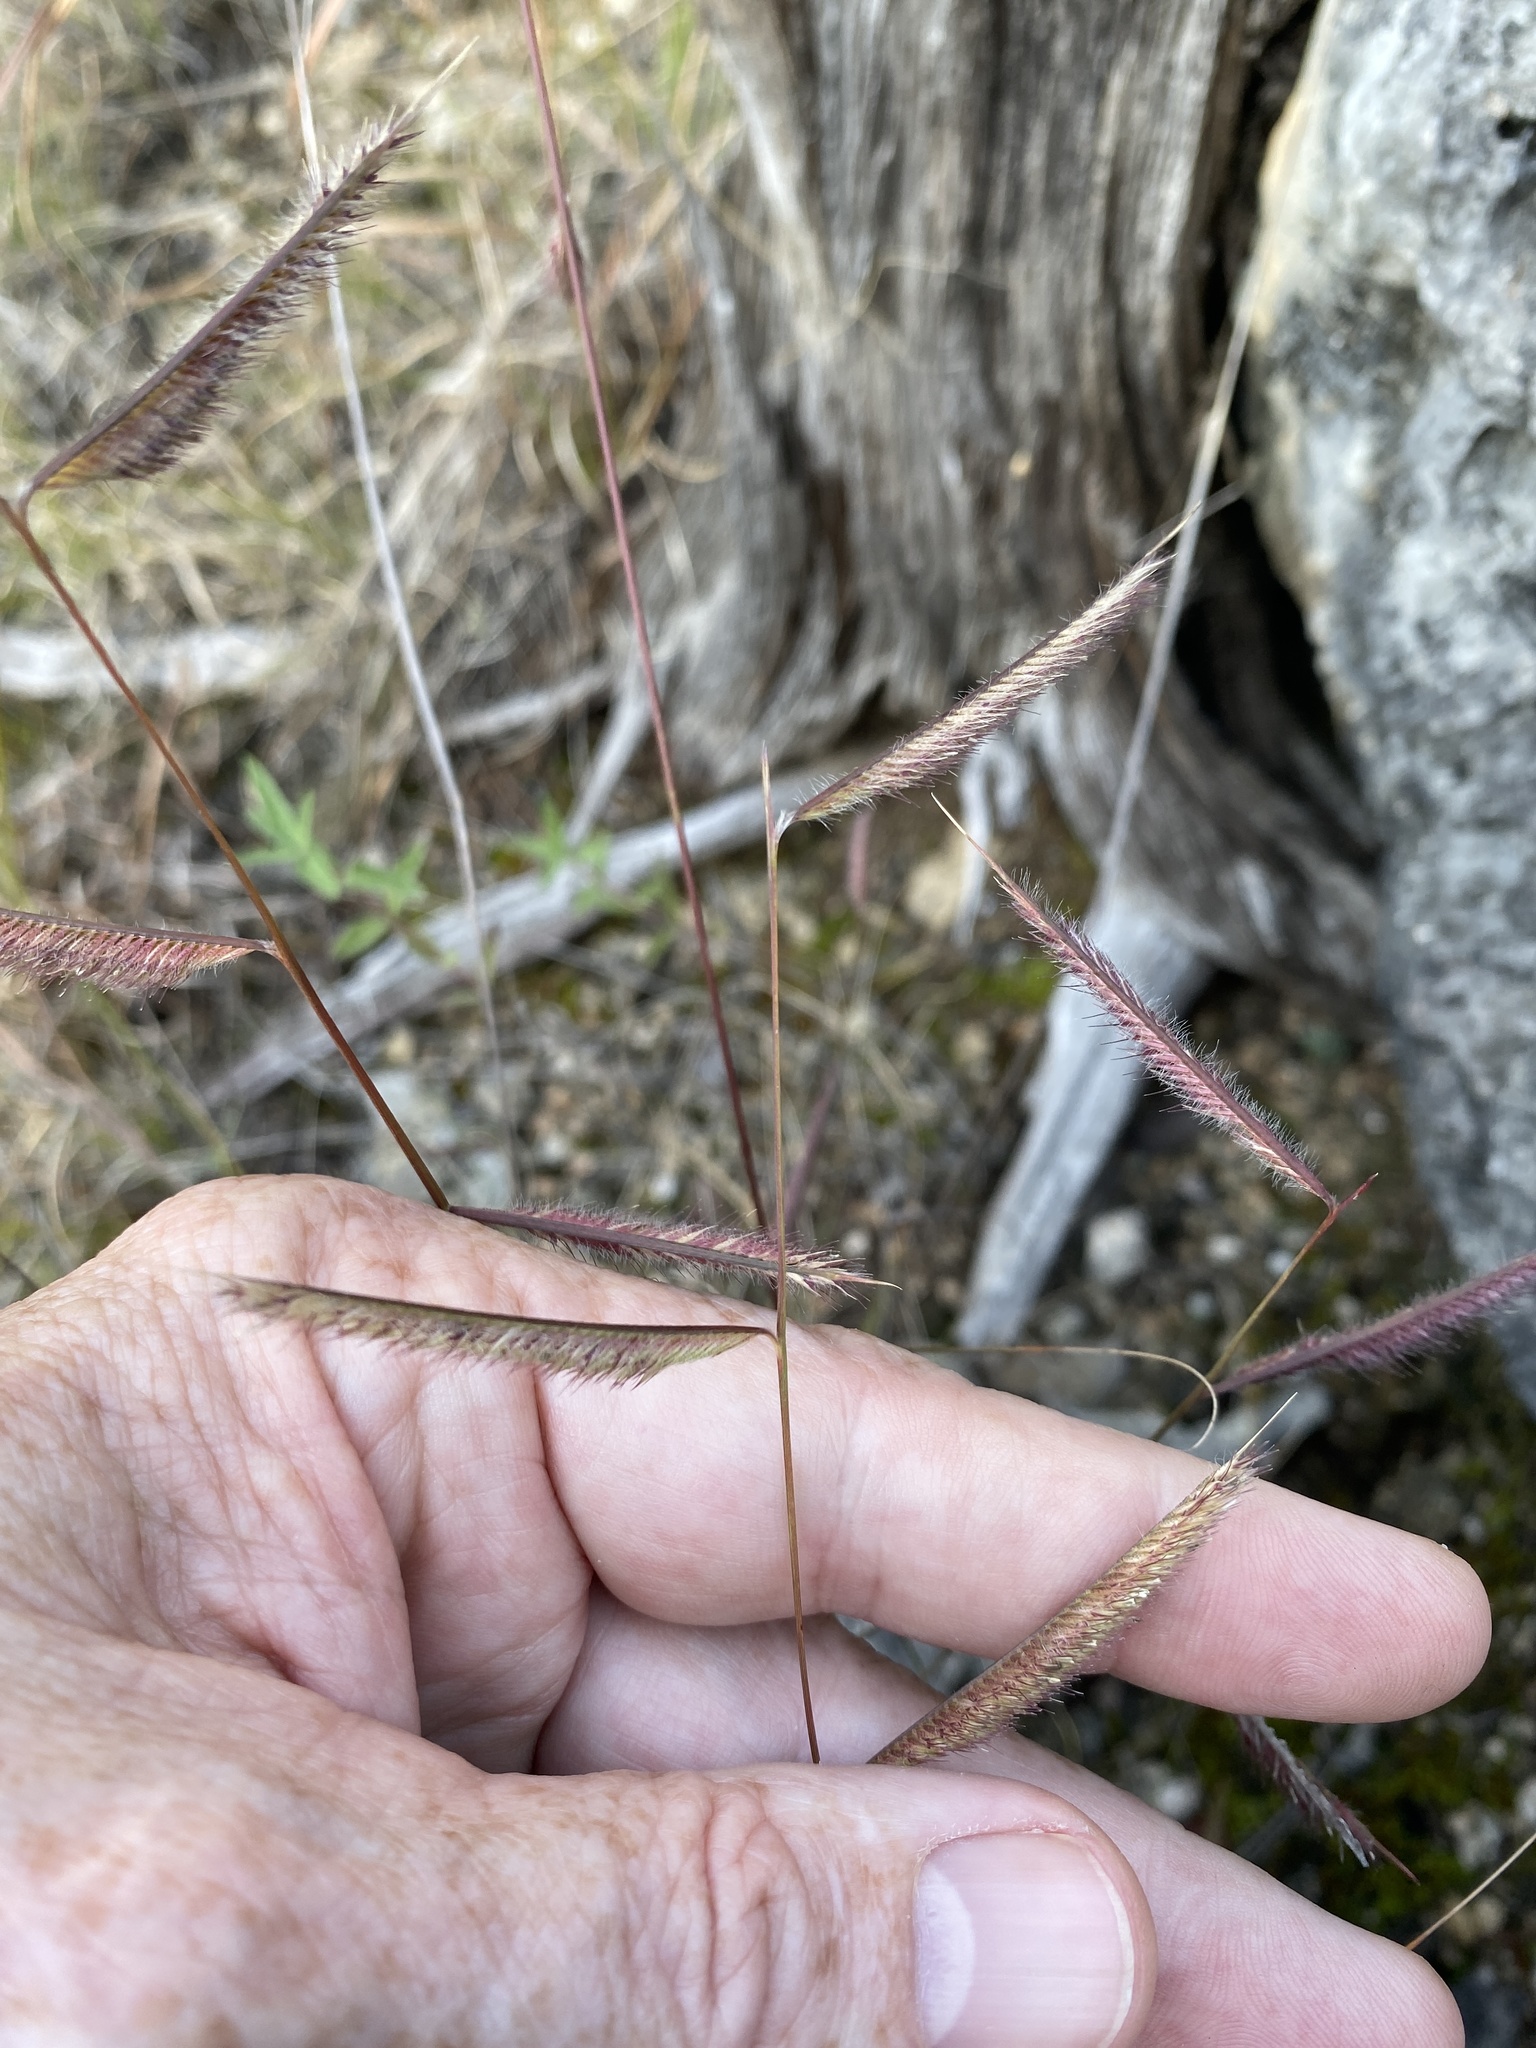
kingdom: Plantae
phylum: Tracheophyta
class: Liliopsida
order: Poales
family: Poaceae
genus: Bouteloua
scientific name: Bouteloua hirsuta
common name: Hairy grama
